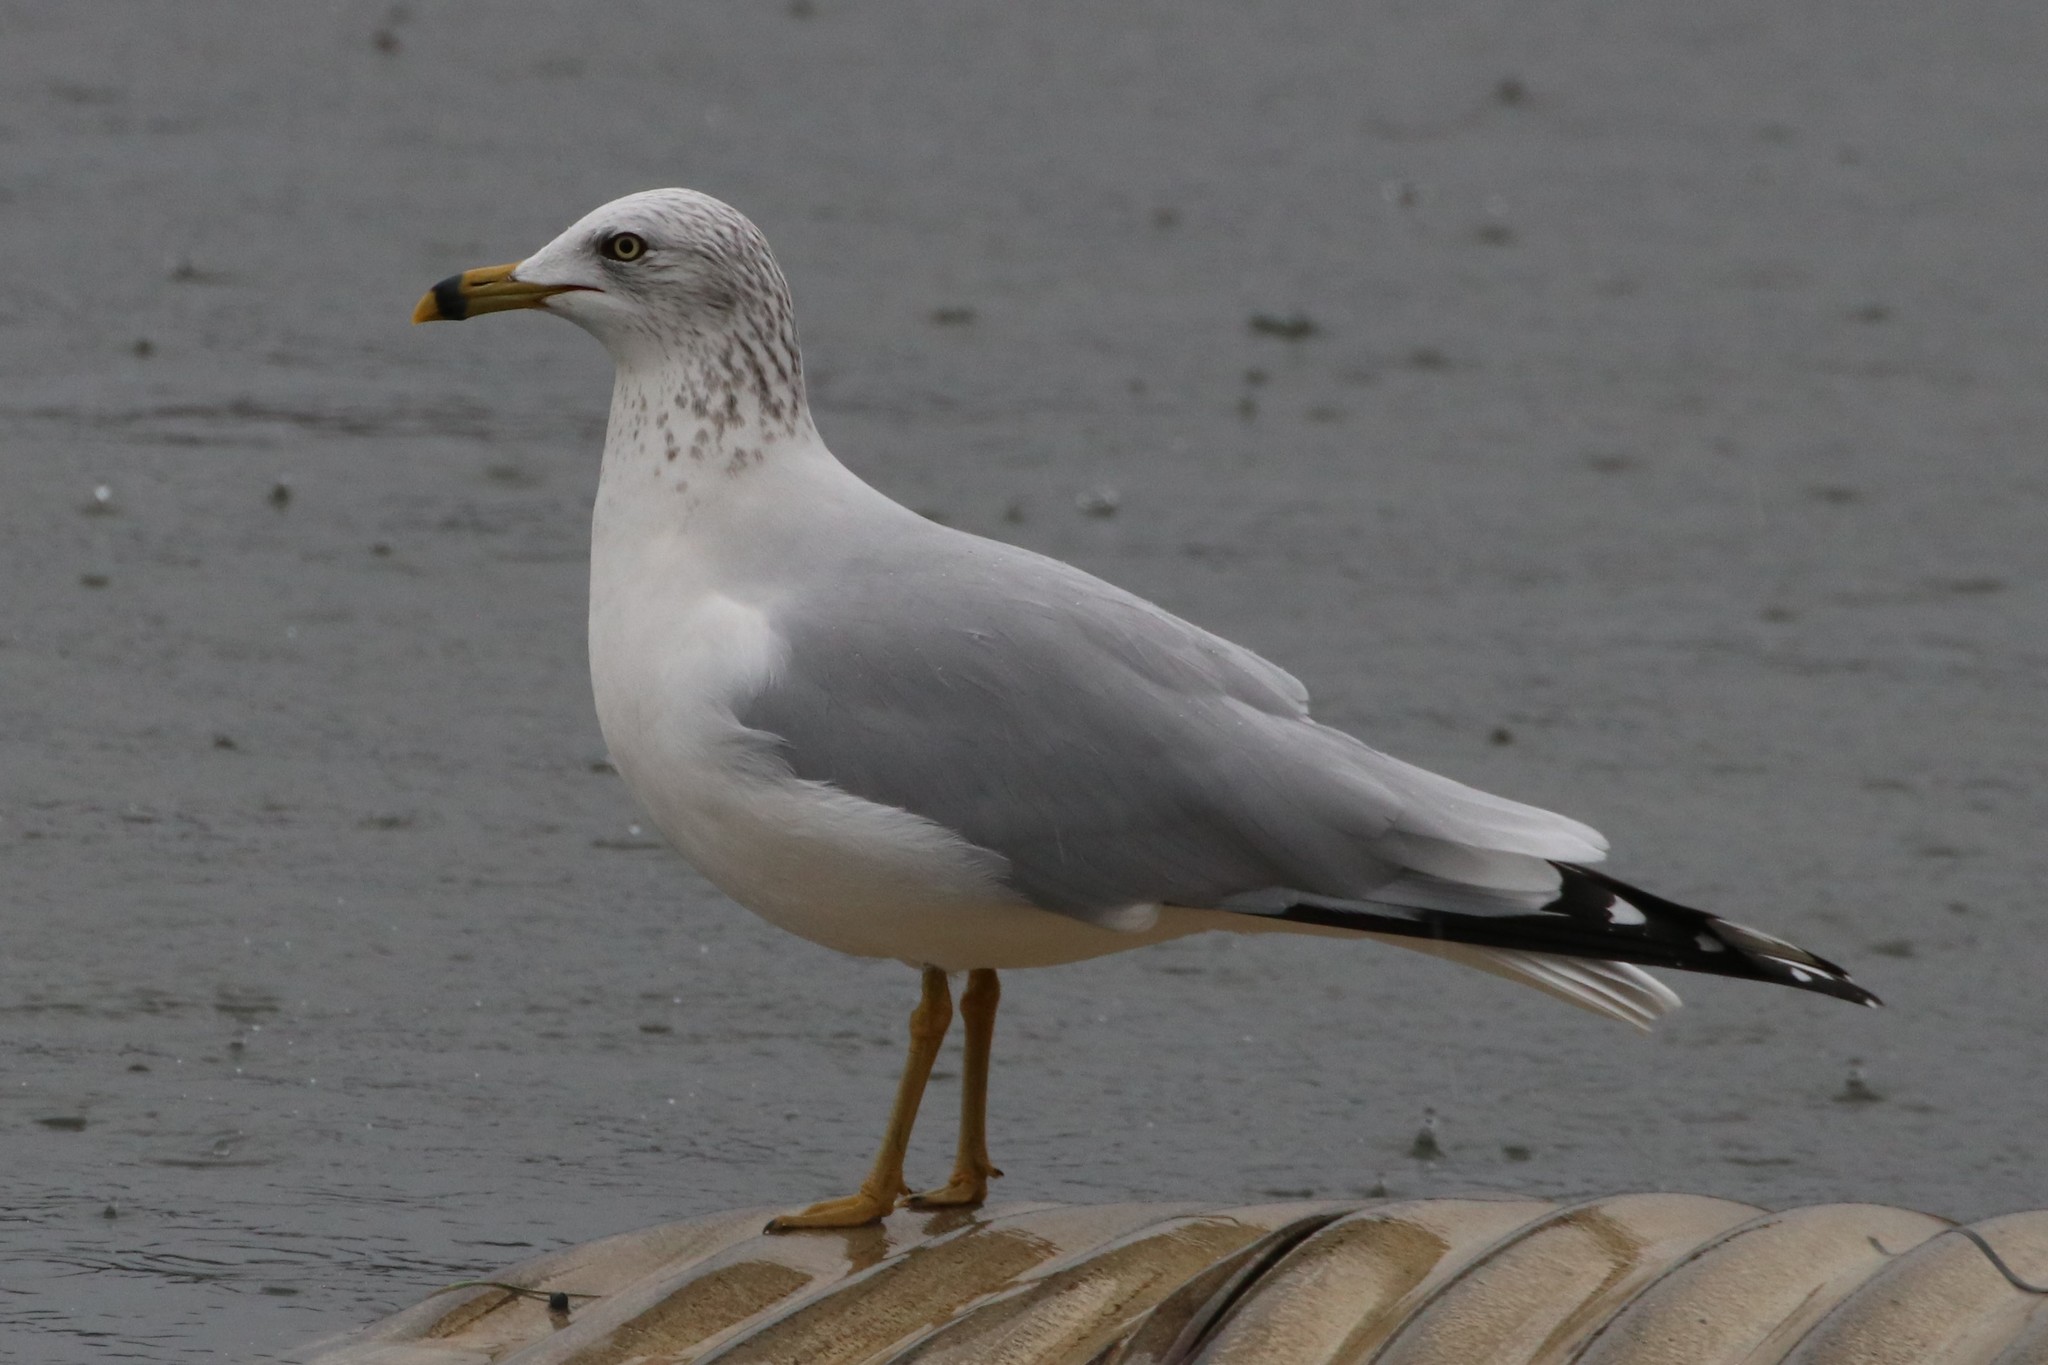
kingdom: Animalia
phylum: Chordata
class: Aves
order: Charadriiformes
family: Laridae
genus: Larus
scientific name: Larus delawarensis
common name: Ring-billed gull
